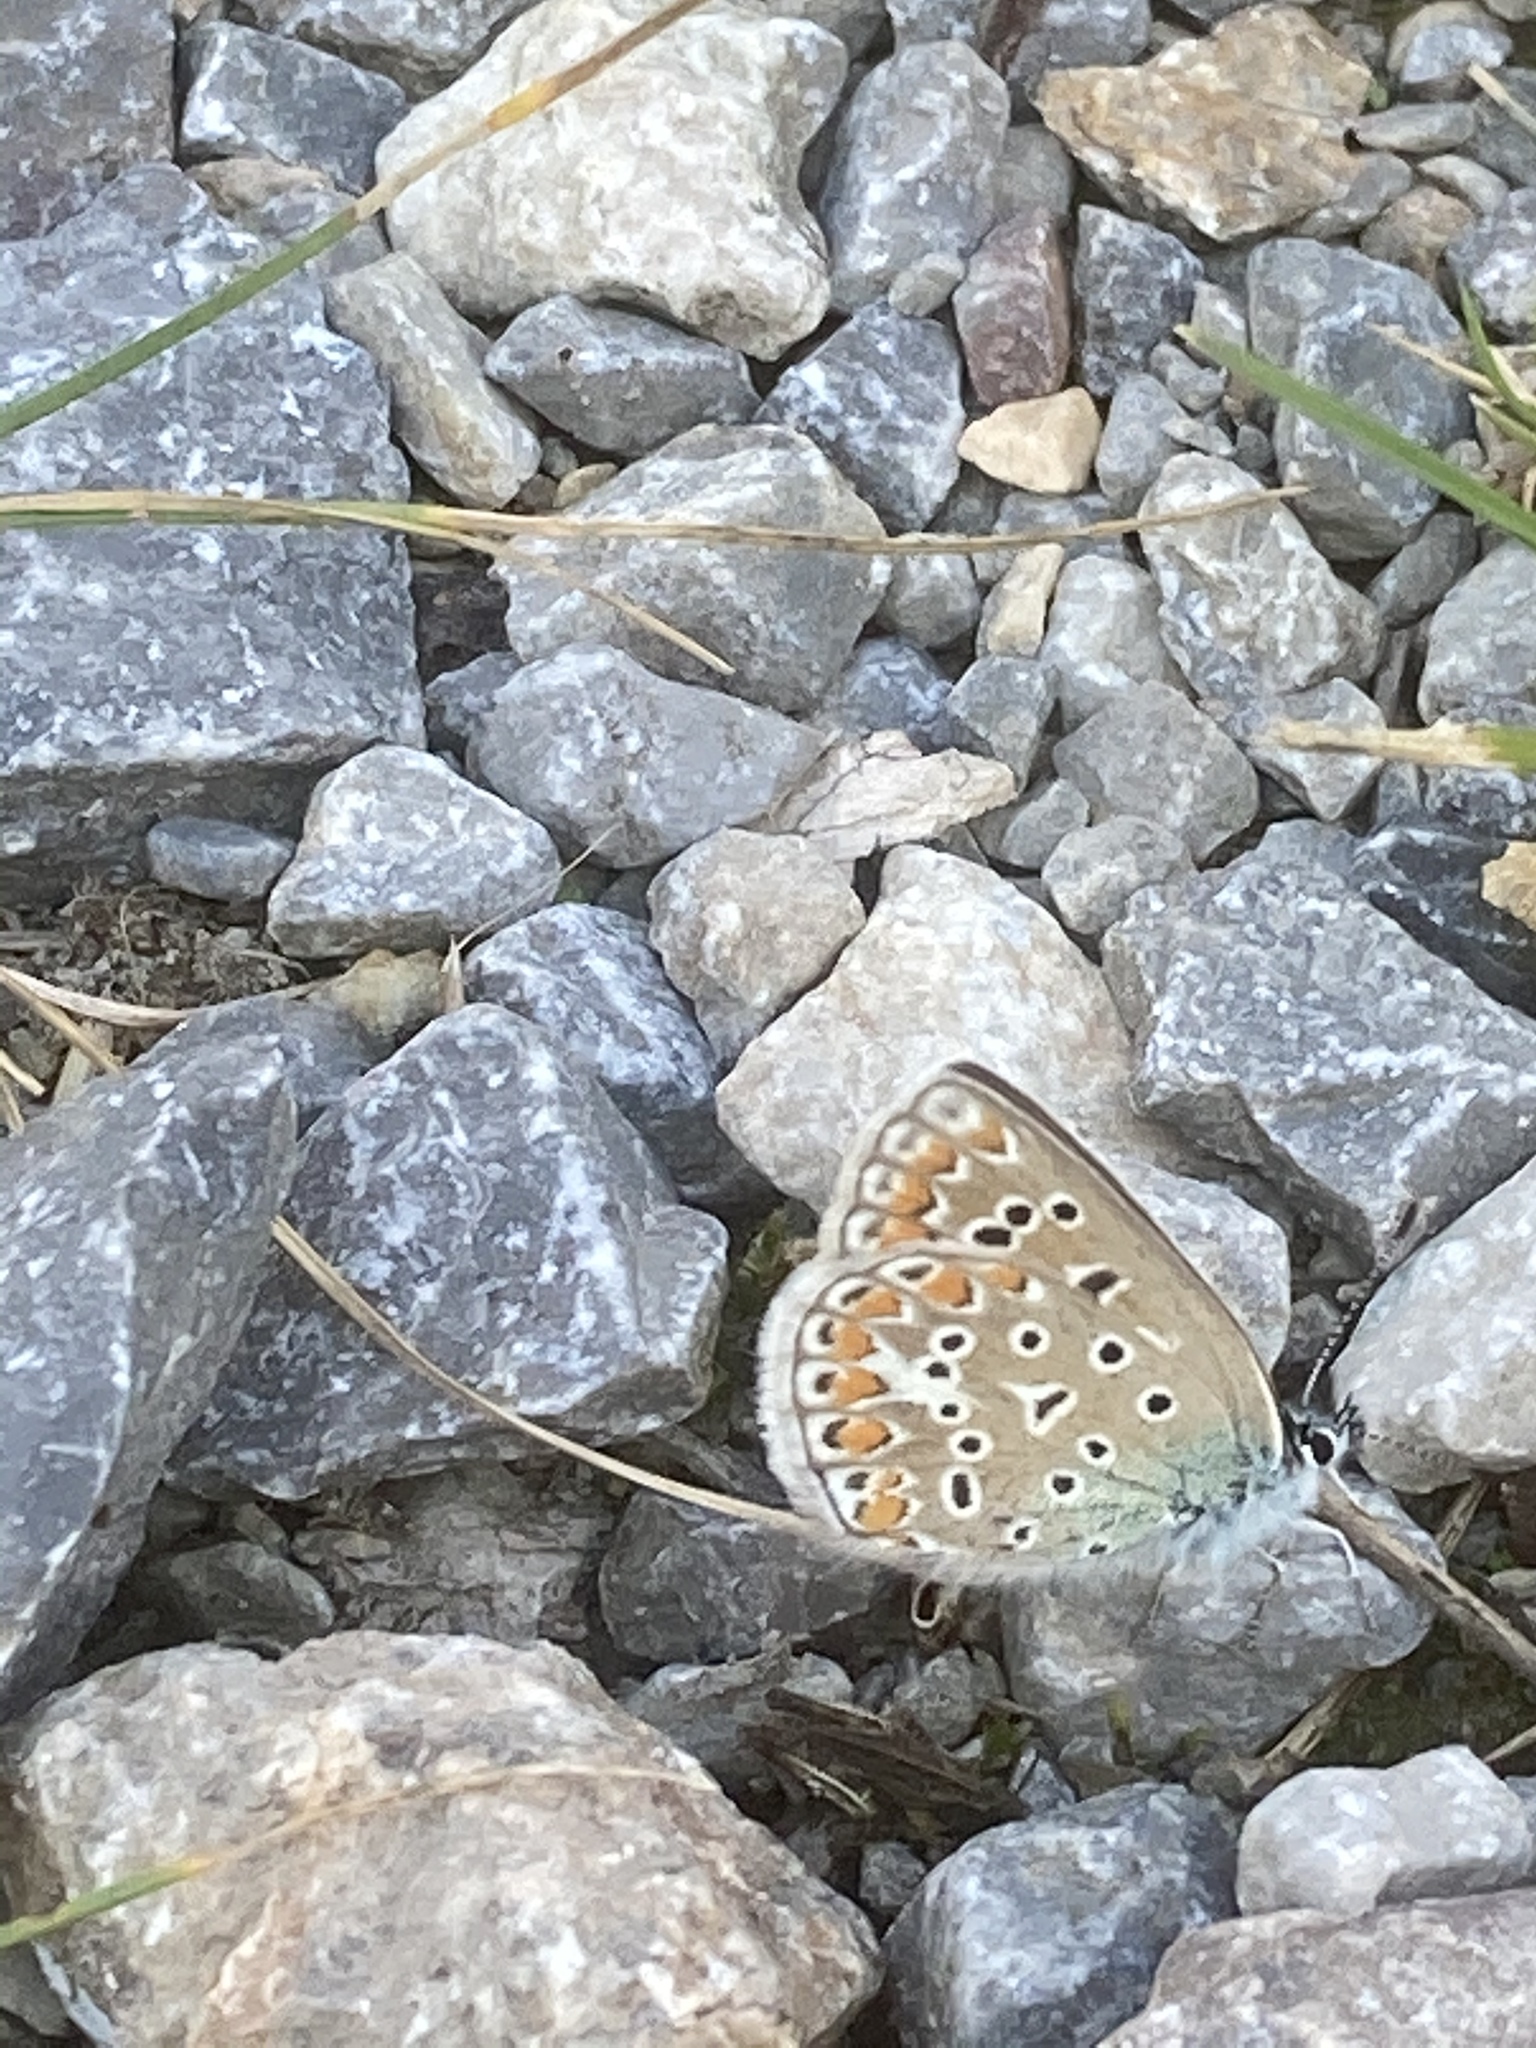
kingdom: Animalia
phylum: Arthropoda
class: Insecta
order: Lepidoptera
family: Lycaenidae
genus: Polyommatus
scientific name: Polyommatus icarus
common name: Common blue
